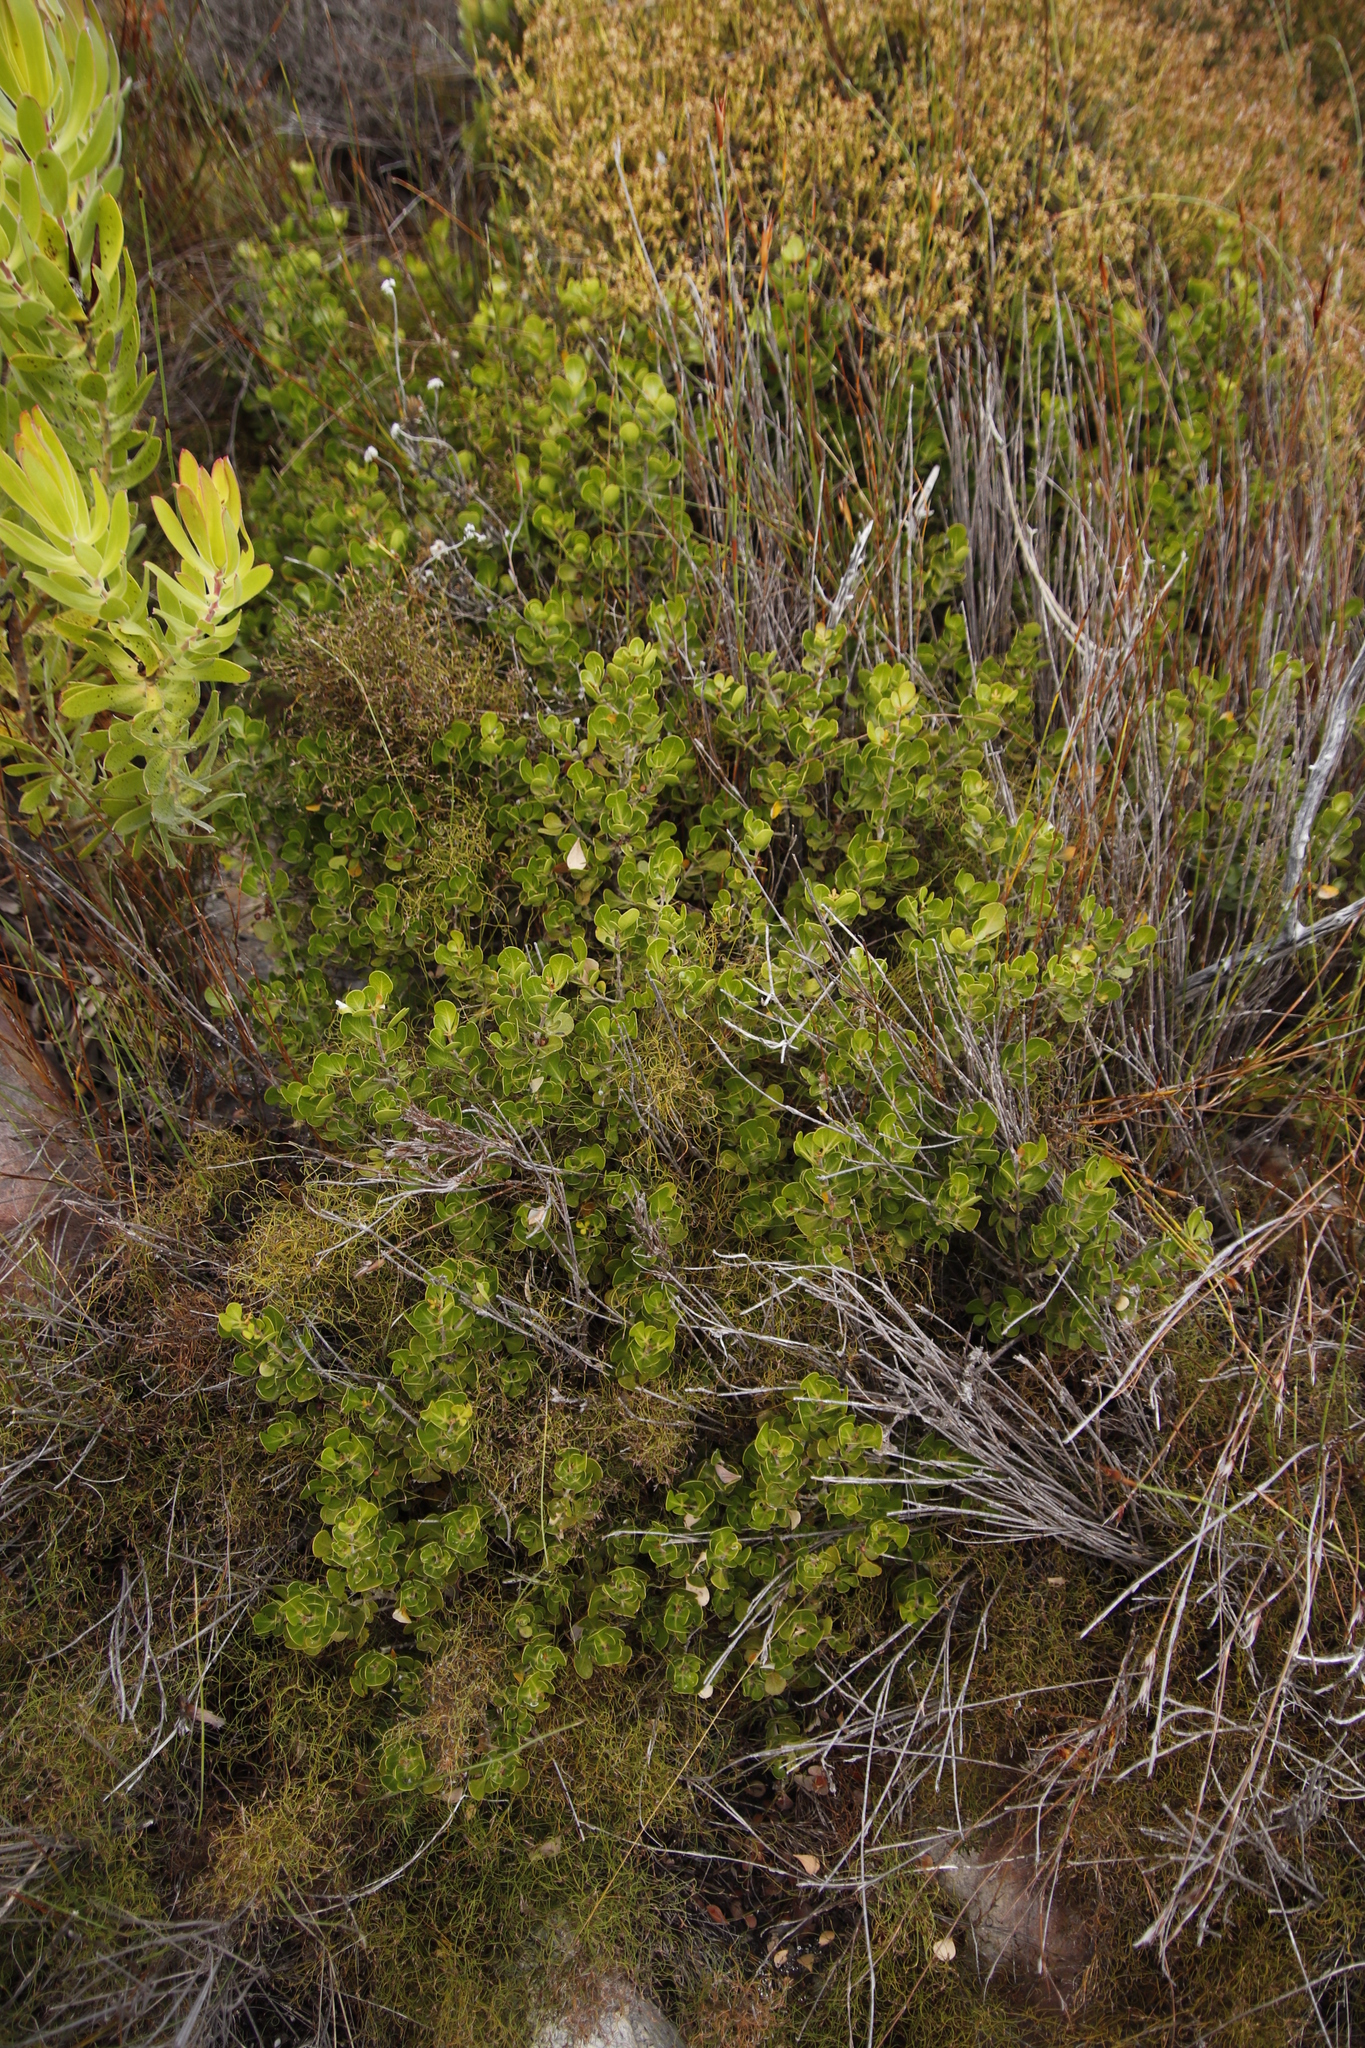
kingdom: Plantae
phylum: Tracheophyta
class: Magnoliopsida
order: Sapindales
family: Anacardiaceae
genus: Searsia
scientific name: Searsia lucida
